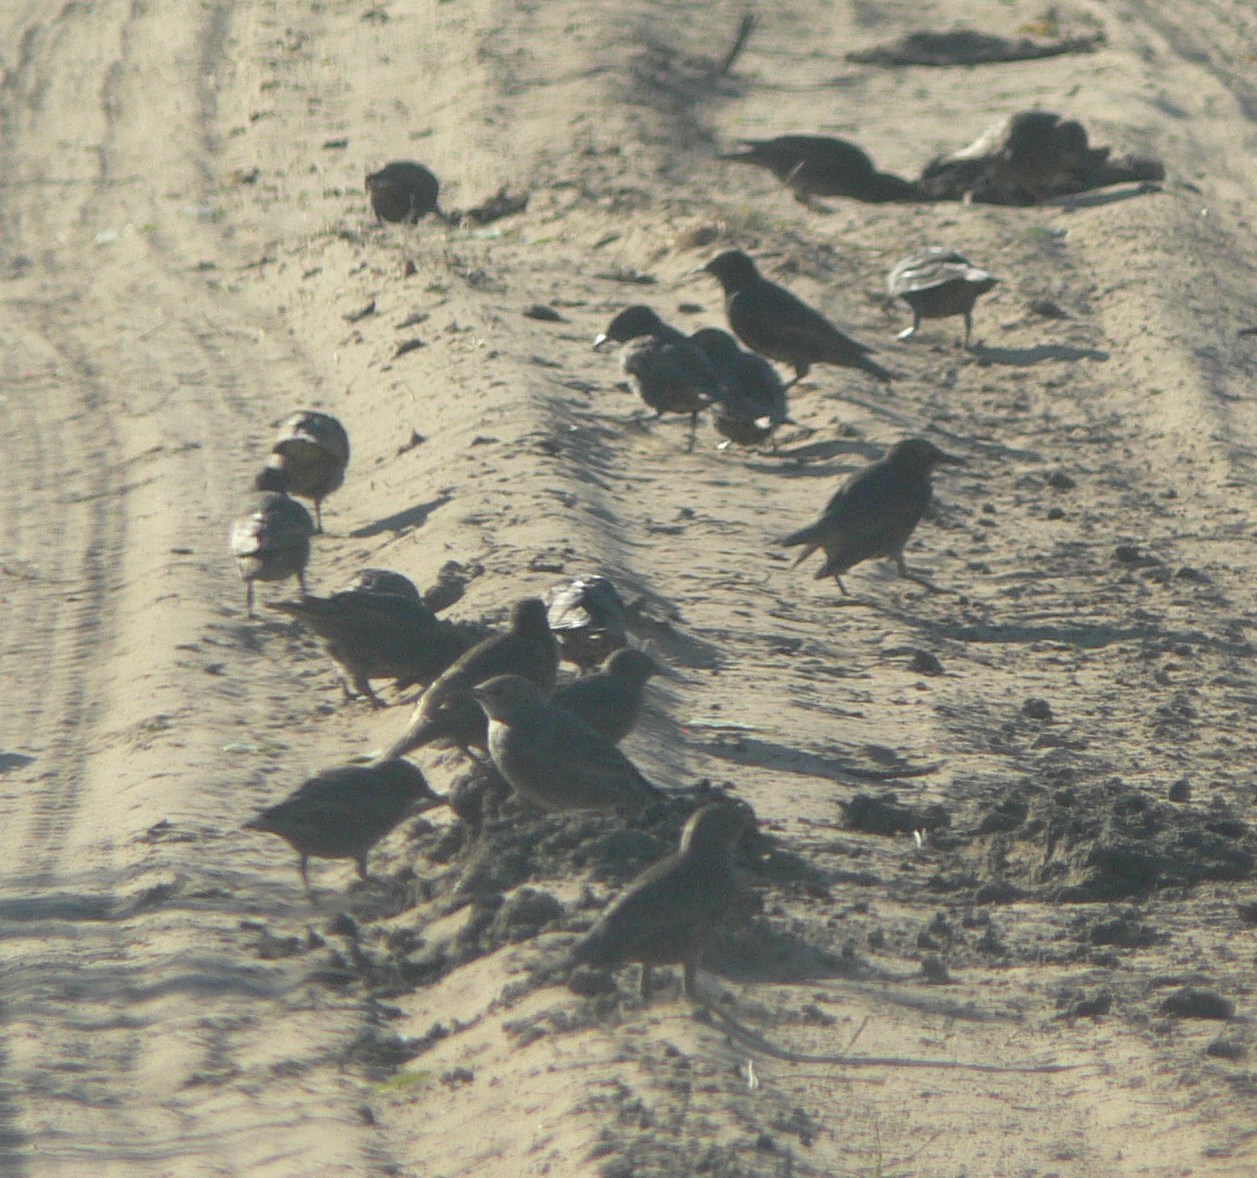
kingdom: Animalia
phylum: Chordata
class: Aves
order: Passeriformes
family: Sturnidae
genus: Sturnus
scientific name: Sturnus vulgaris
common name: Common starling
